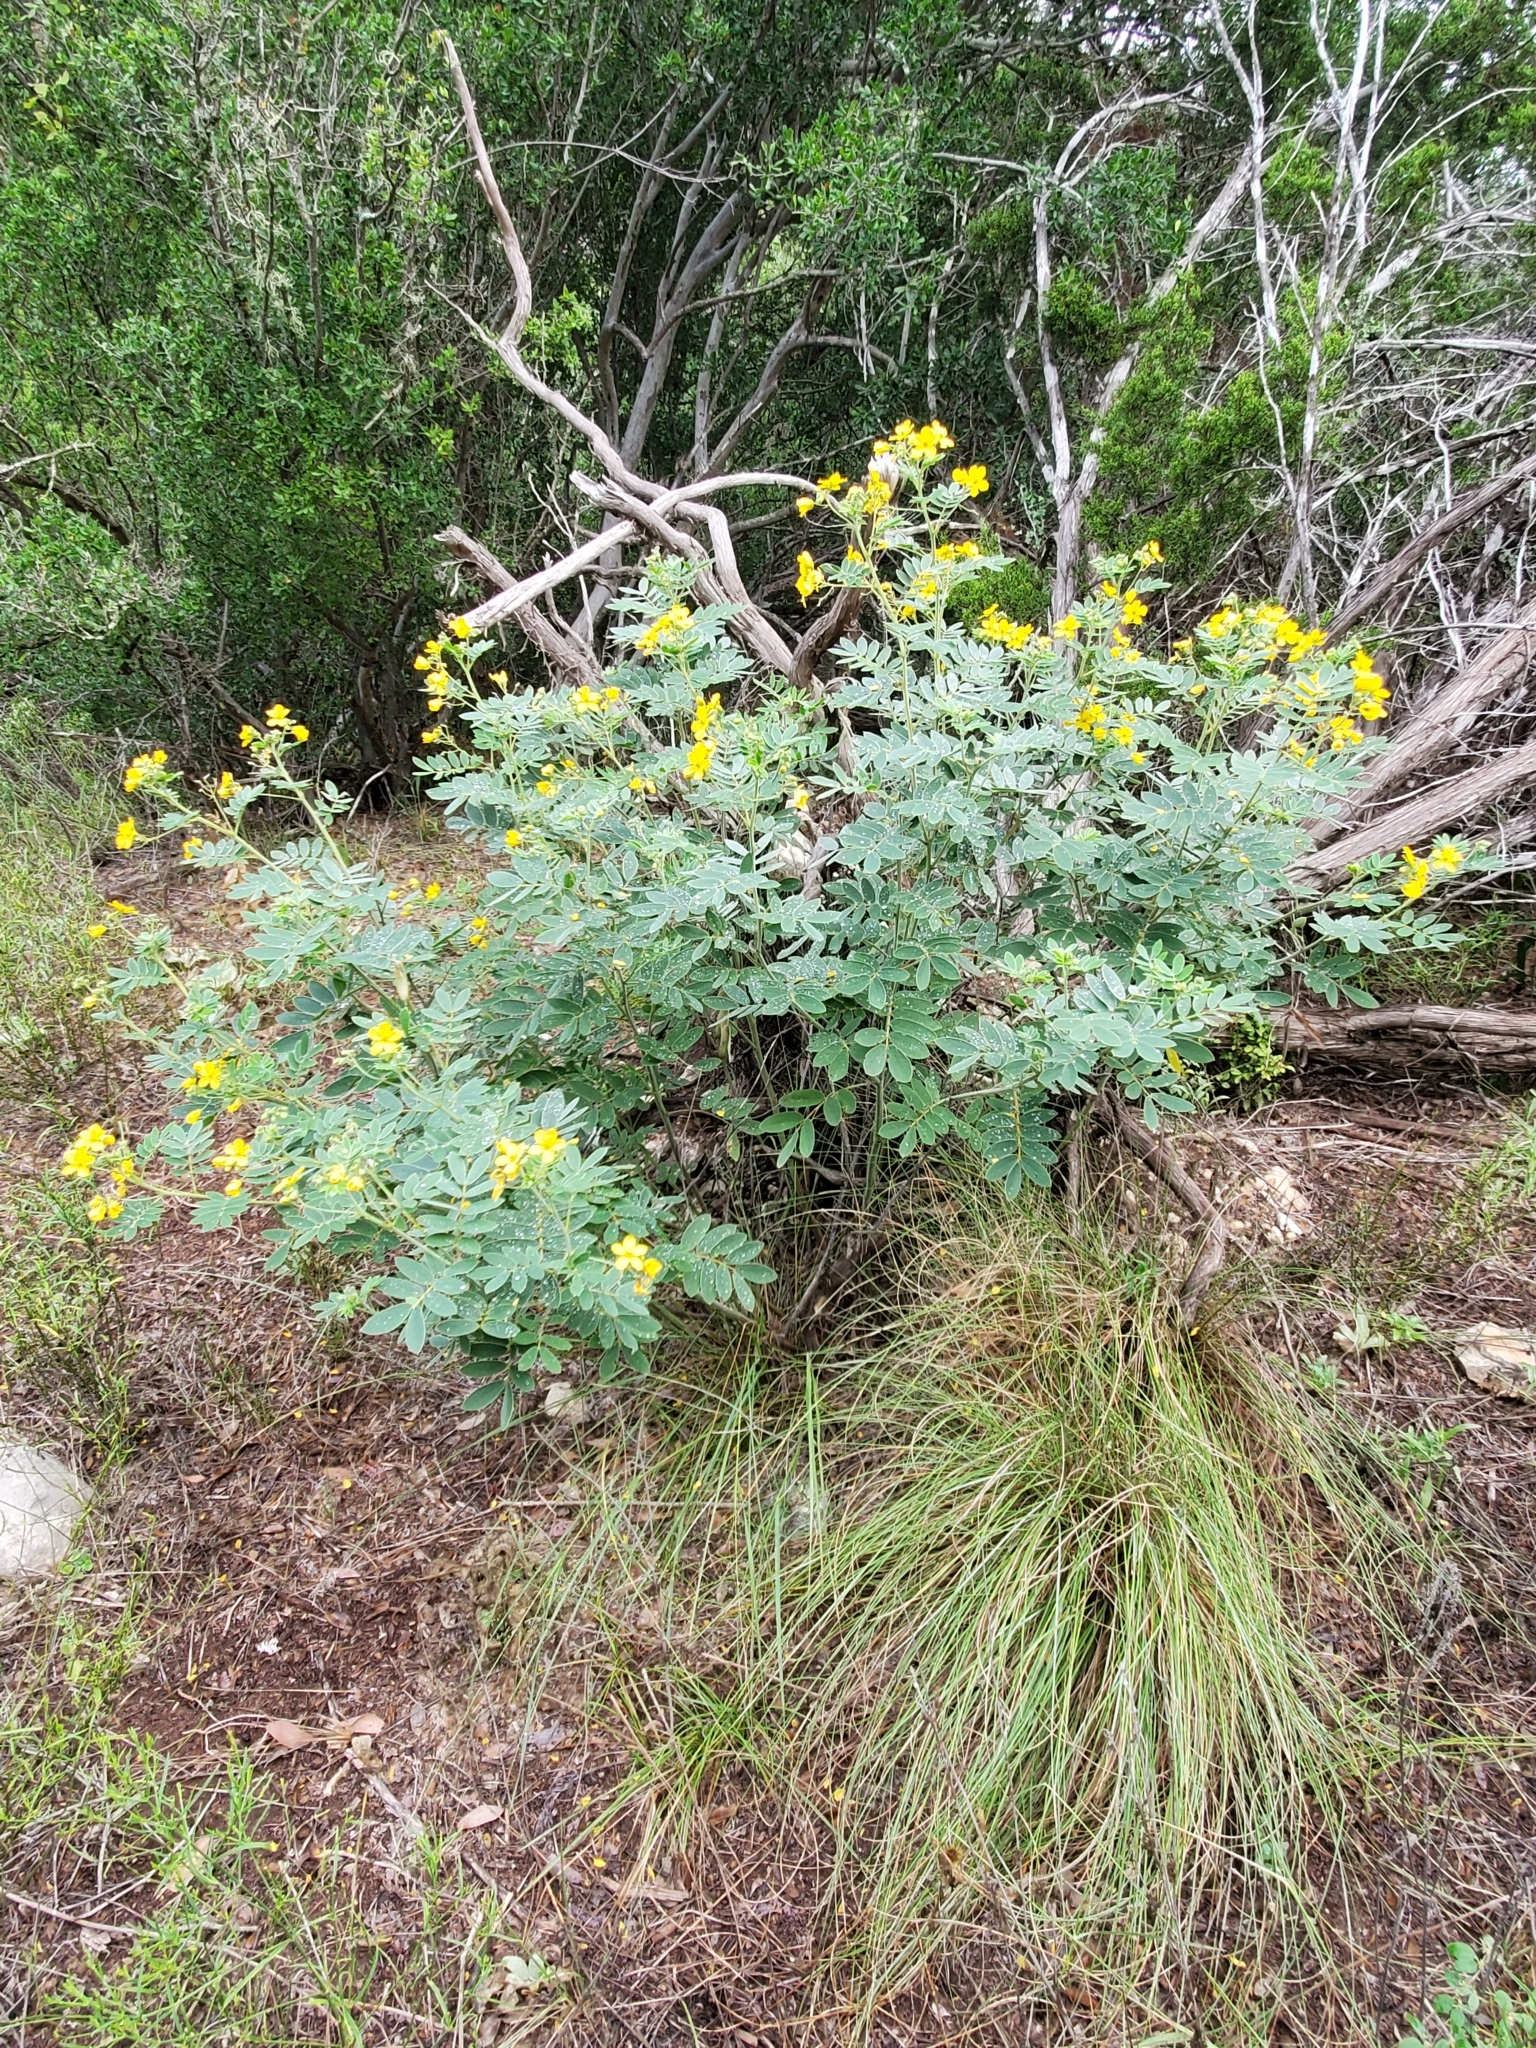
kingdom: Plantae
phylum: Tracheophyta
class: Magnoliopsida
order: Fabales
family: Fabaceae
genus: Senna
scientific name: Senna lindheimeriana
